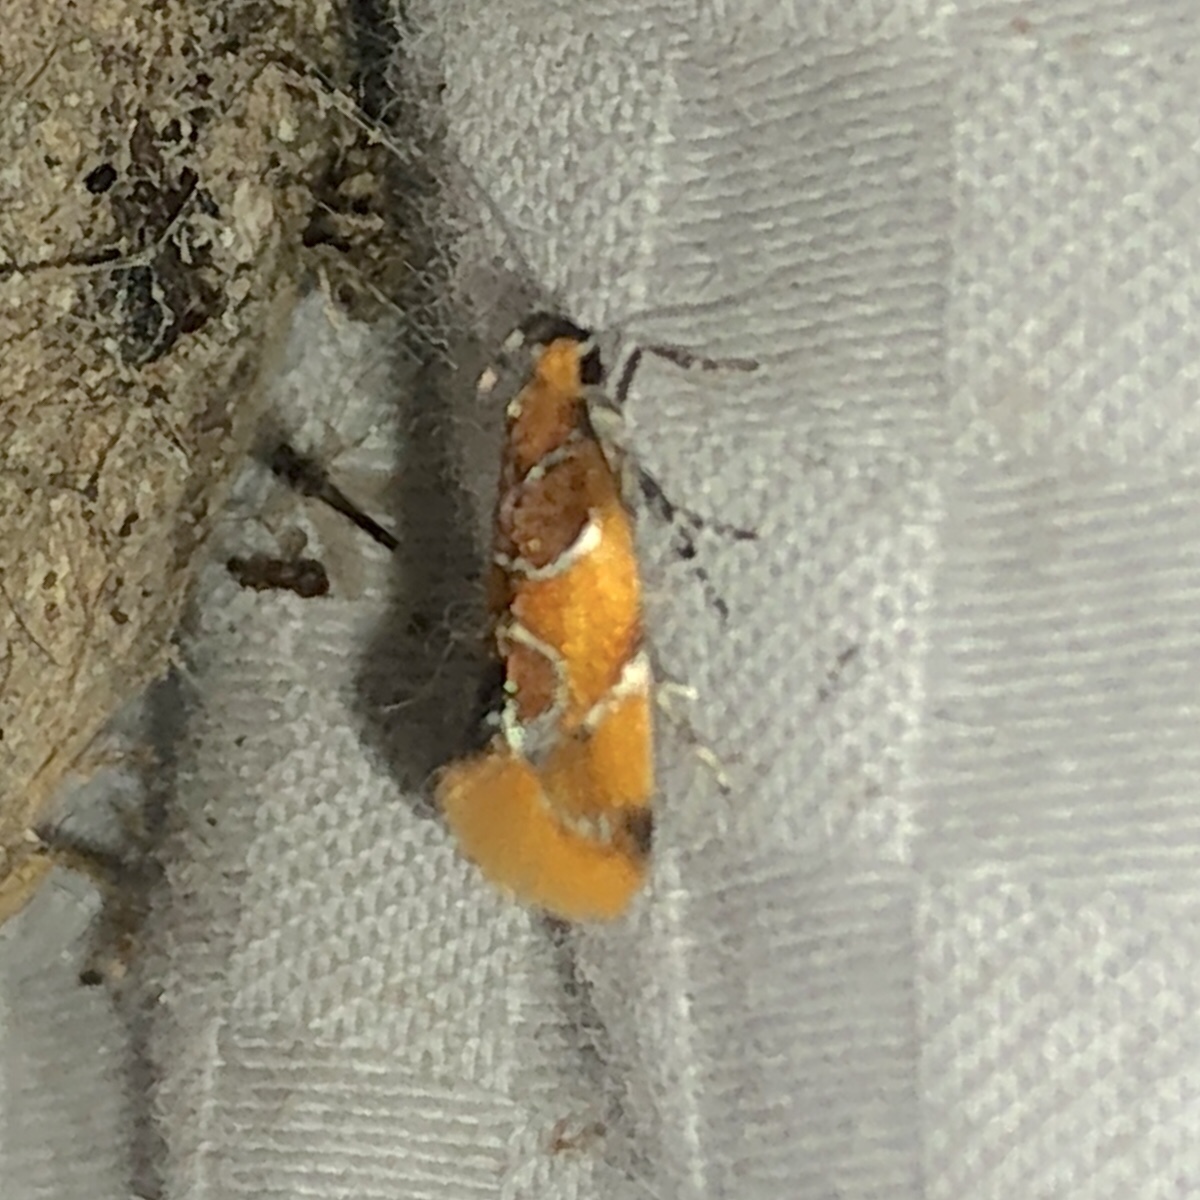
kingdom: Animalia
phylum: Arthropoda
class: Insecta
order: Lepidoptera
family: Oecophoridae
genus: Callima
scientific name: Callima argenticinctella
